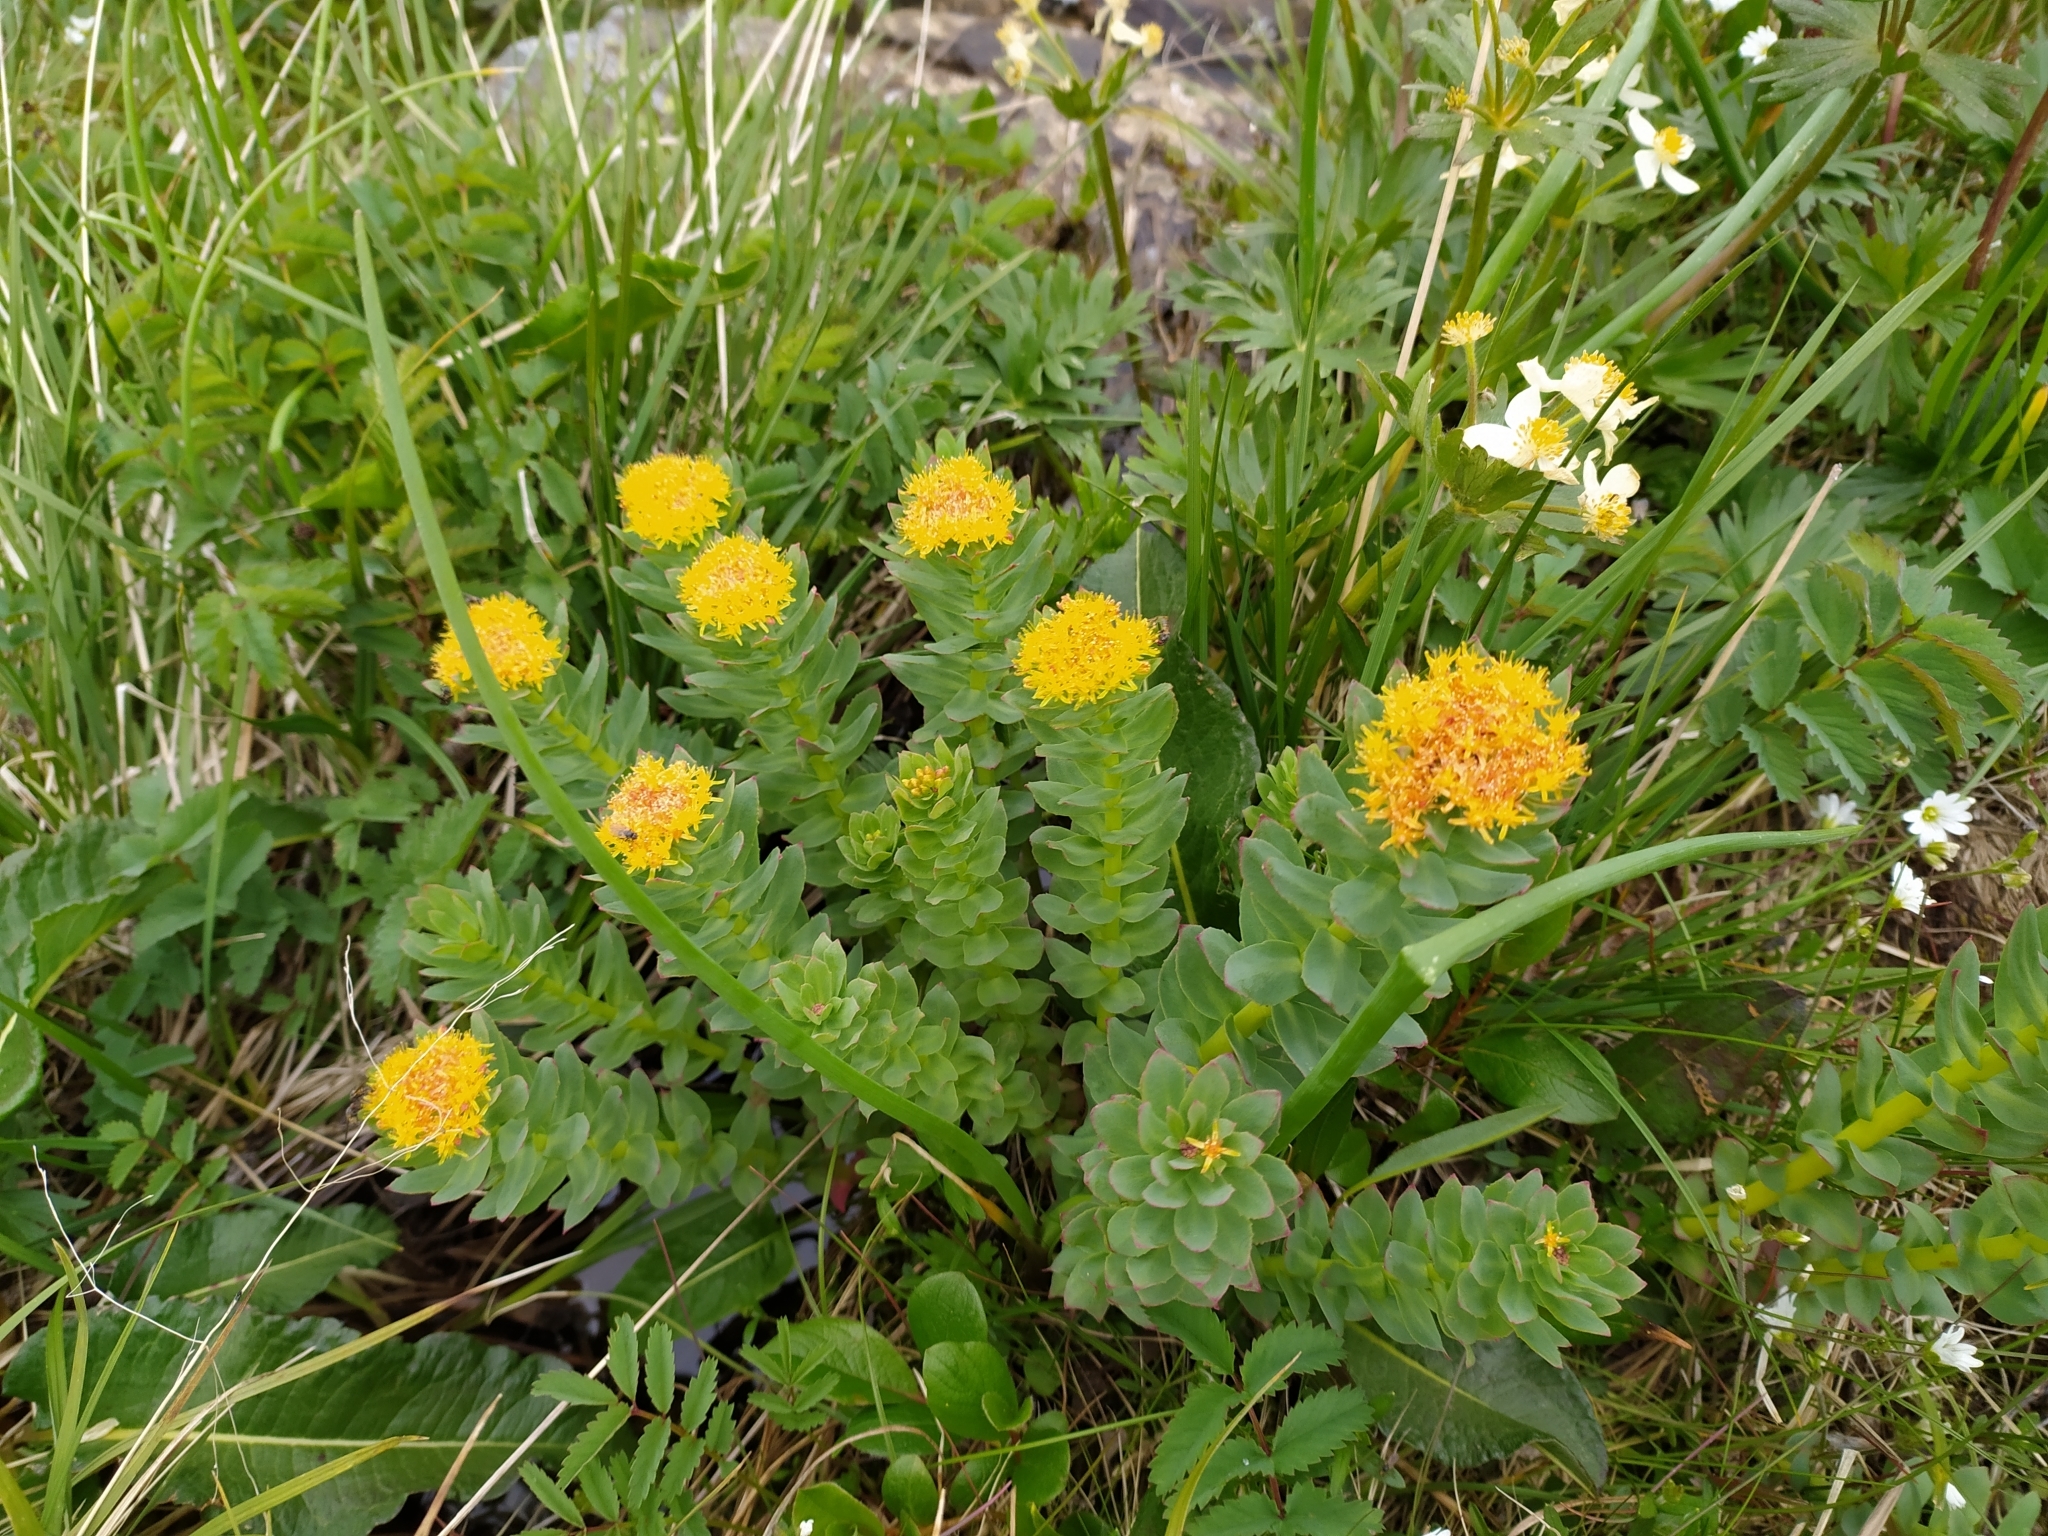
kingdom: Plantae
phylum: Tracheophyta
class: Magnoliopsida
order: Saxifragales
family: Crassulaceae
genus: Rhodiola
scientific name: Rhodiola rosea
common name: Roseroot
